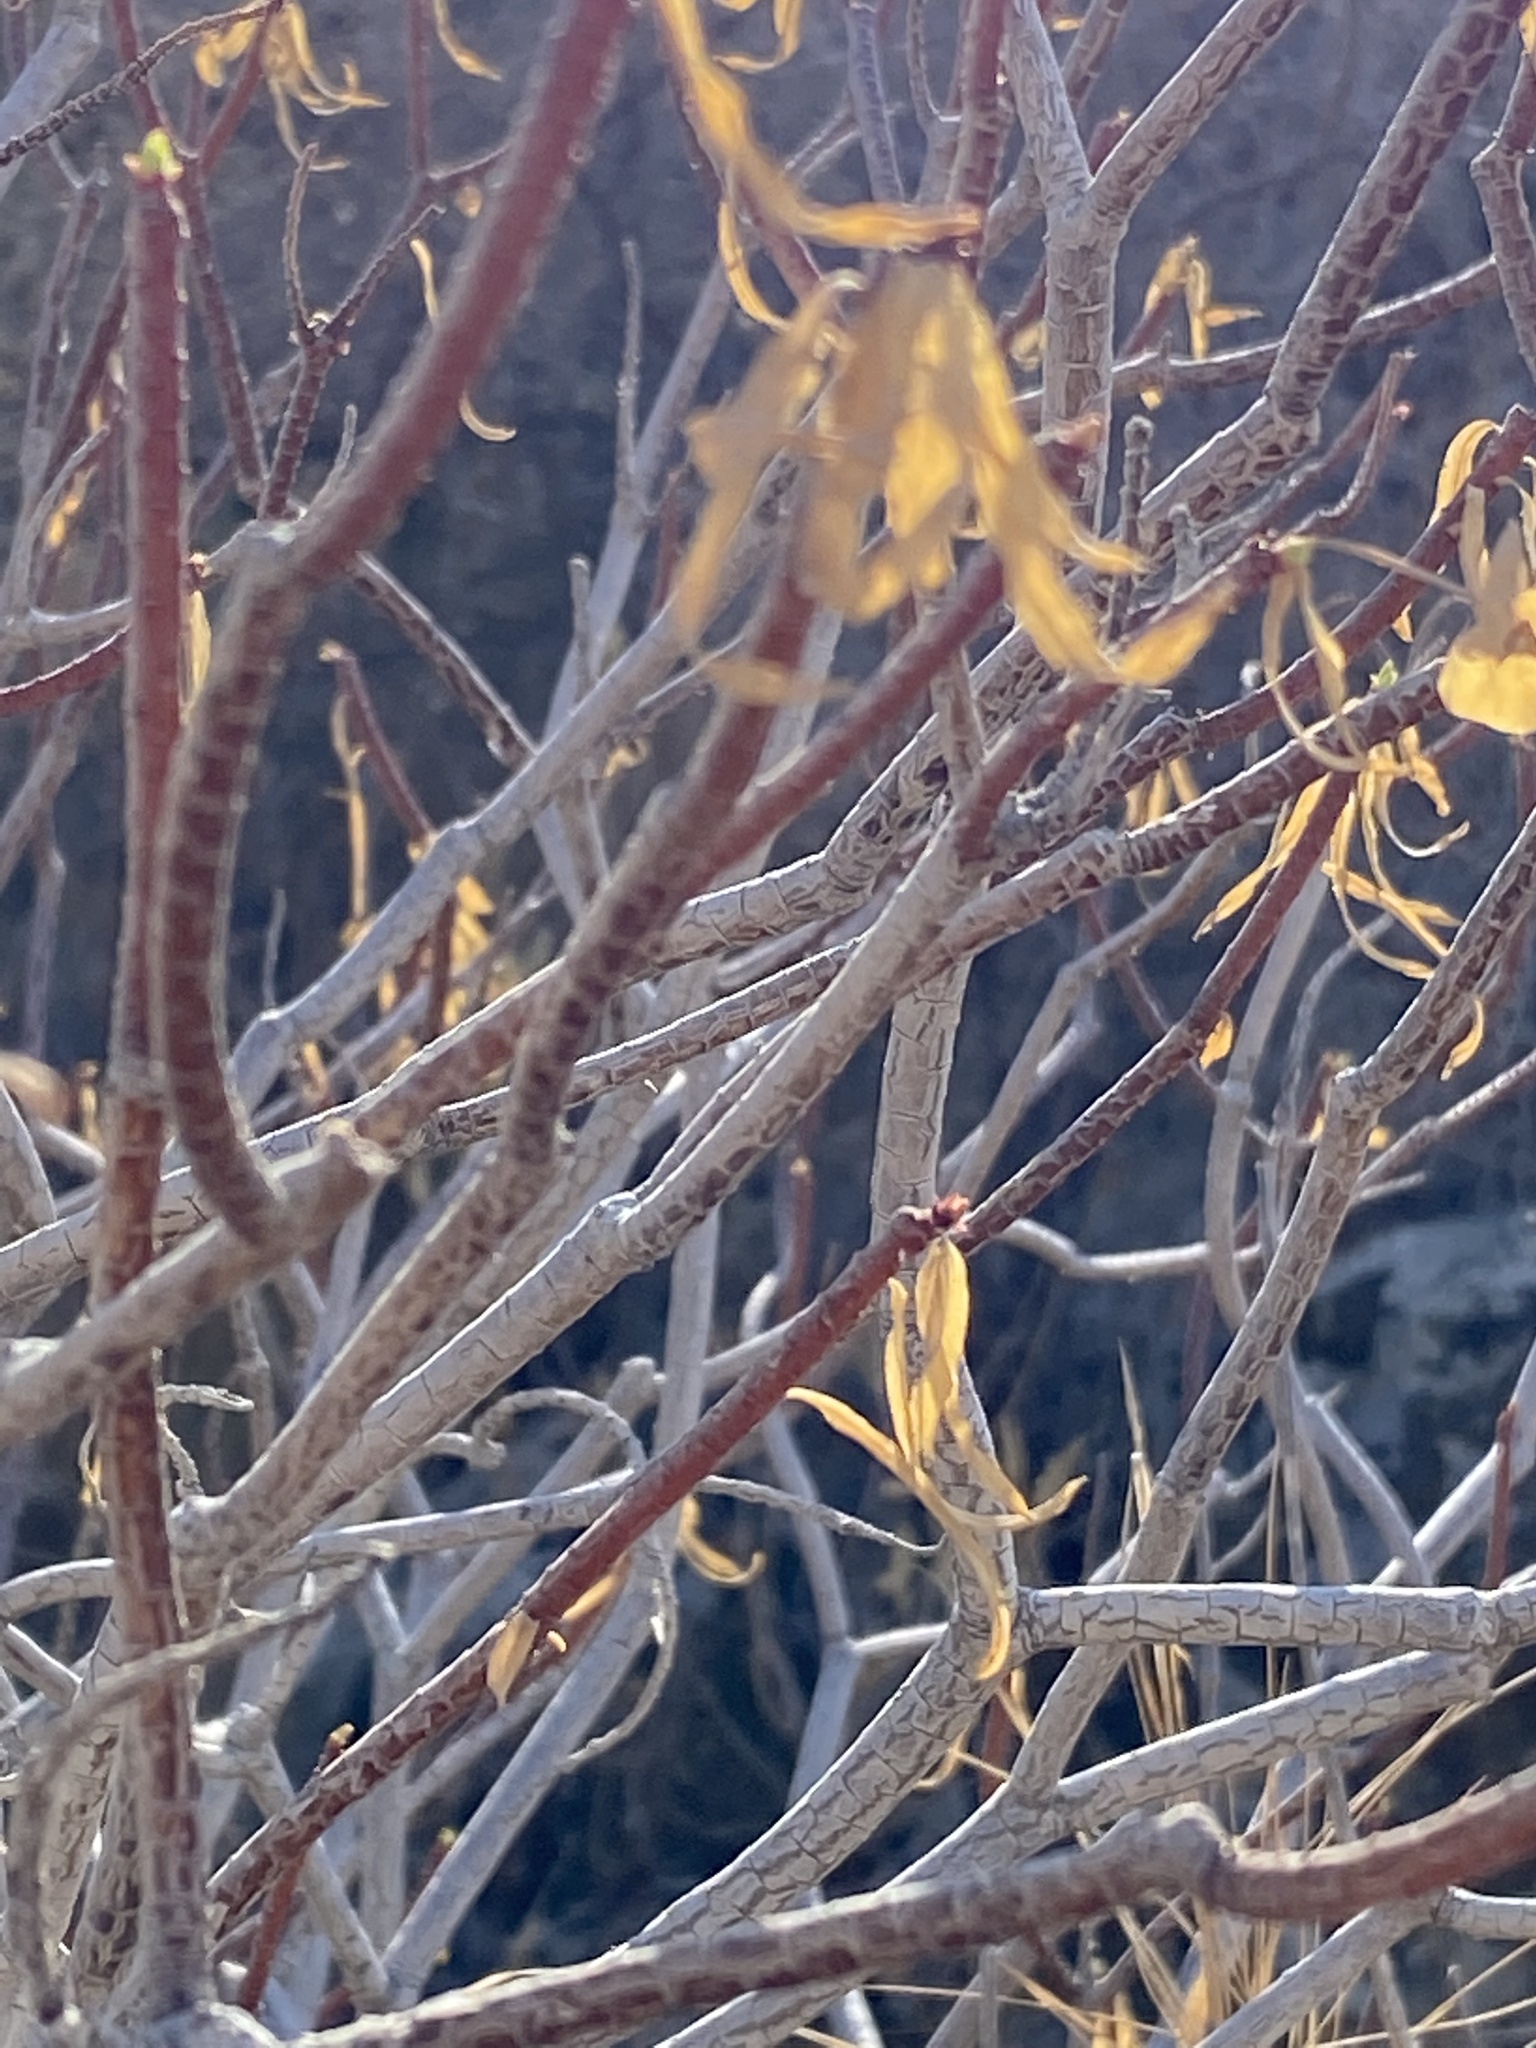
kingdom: Plantae
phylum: Tracheophyta
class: Magnoliopsida
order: Malpighiales
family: Euphorbiaceae
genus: Euphorbia
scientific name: Euphorbia dendroides
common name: Tree spurge
